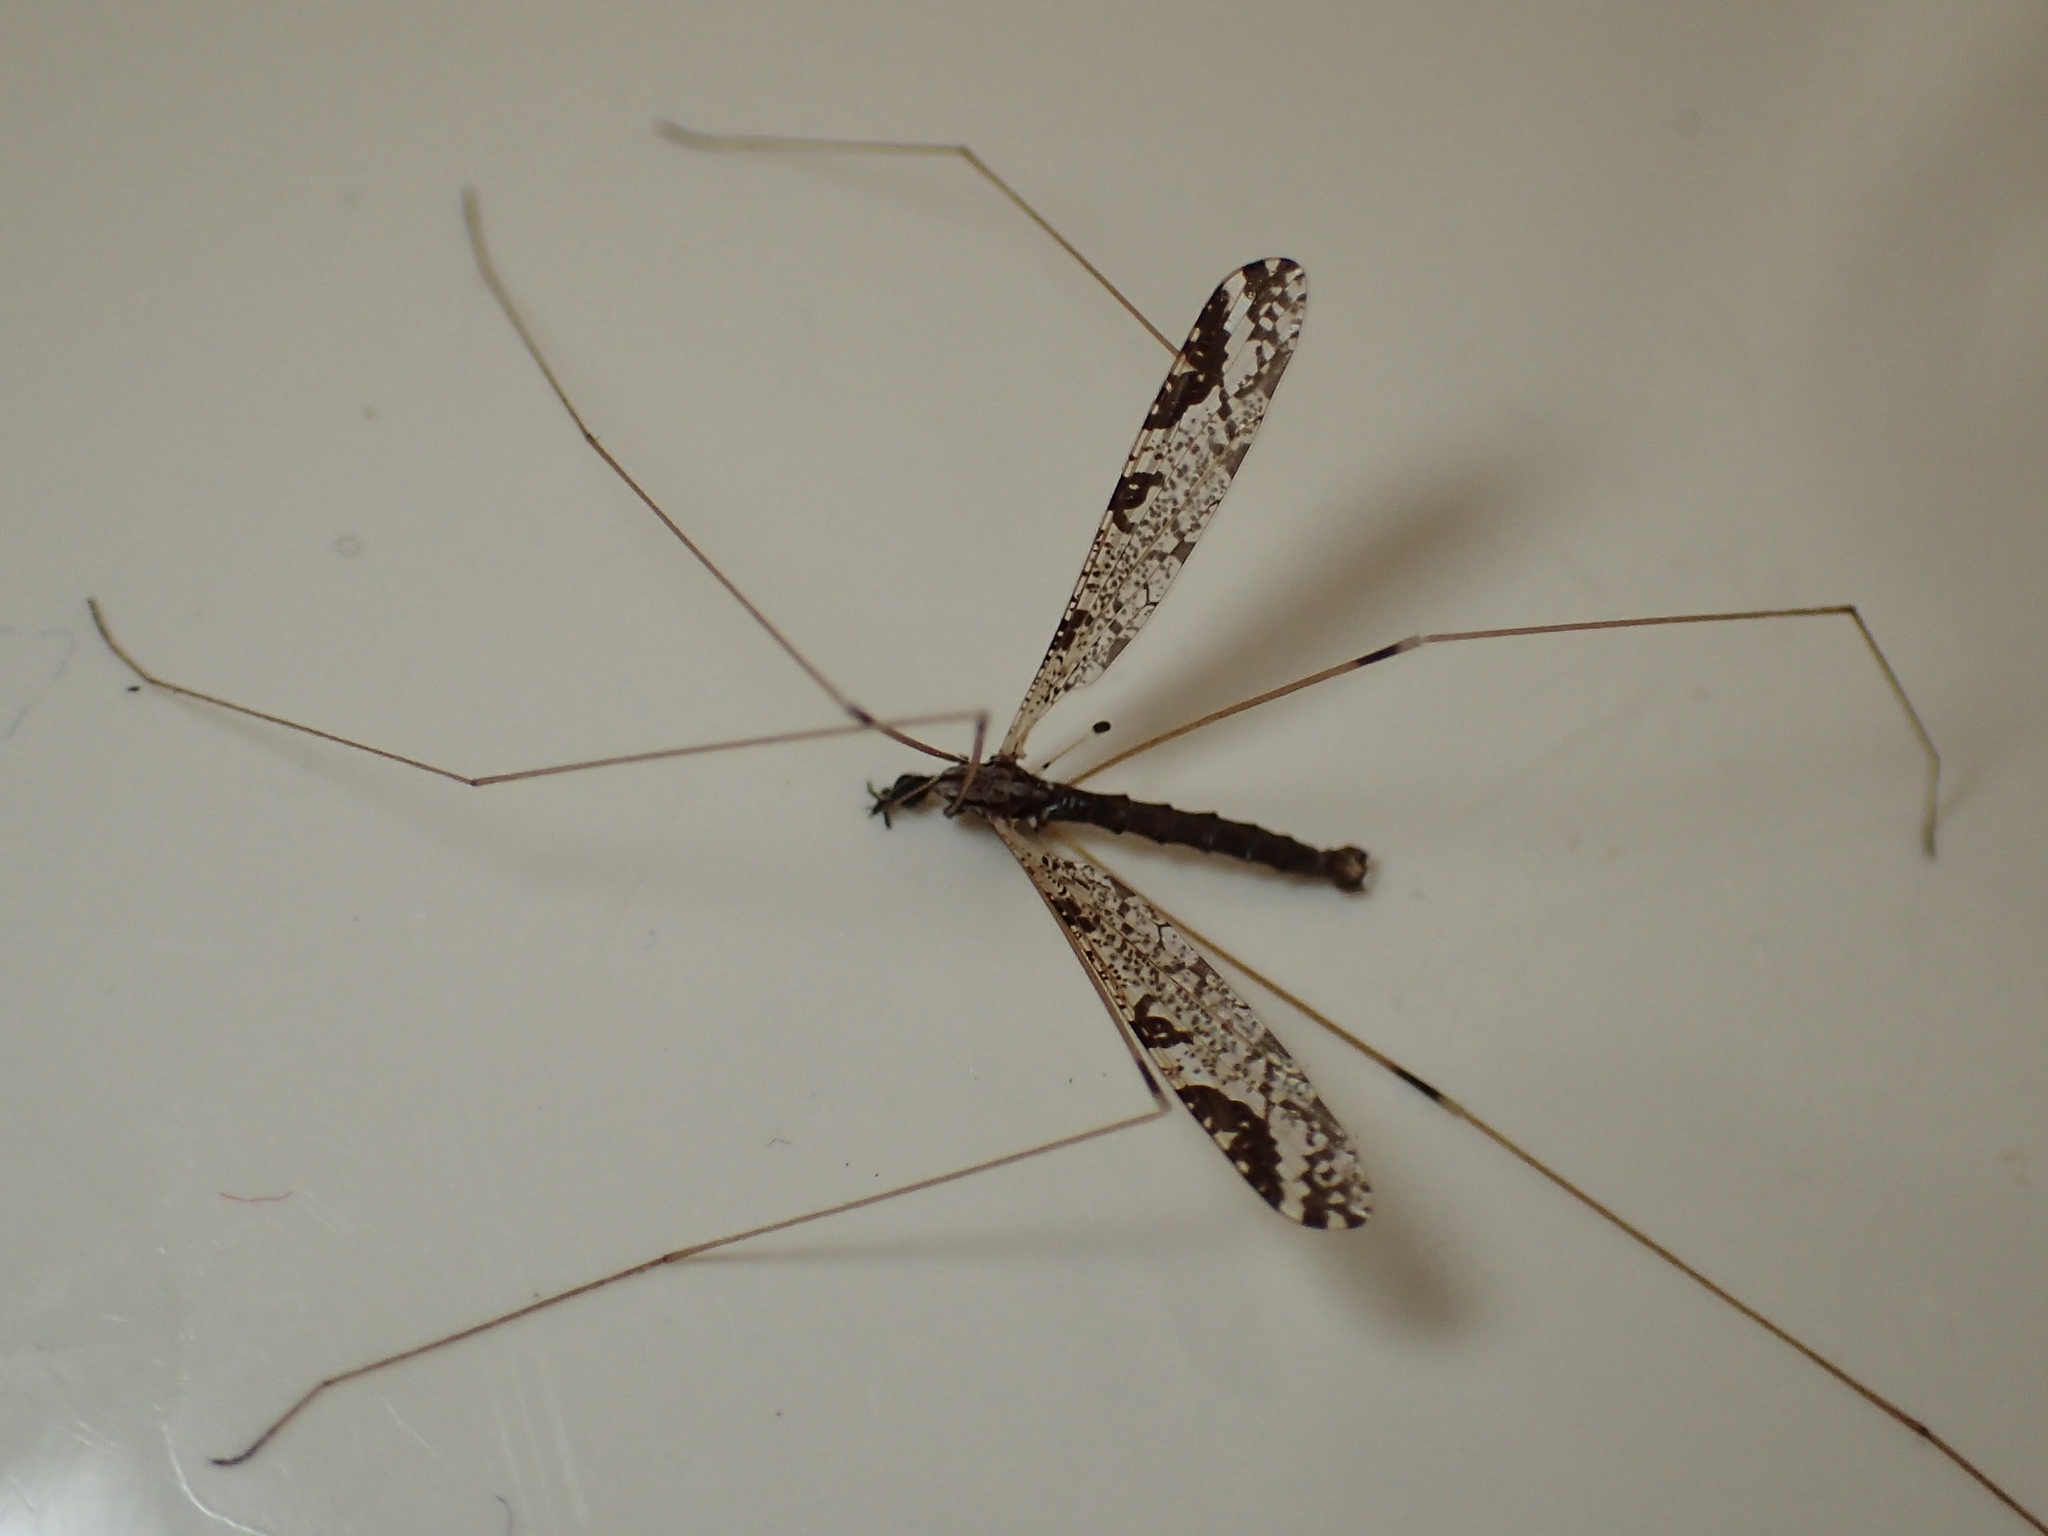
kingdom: Animalia
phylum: Arthropoda
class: Insecta
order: Diptera
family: Limoniidae
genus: Discobola
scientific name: Discobola striata
